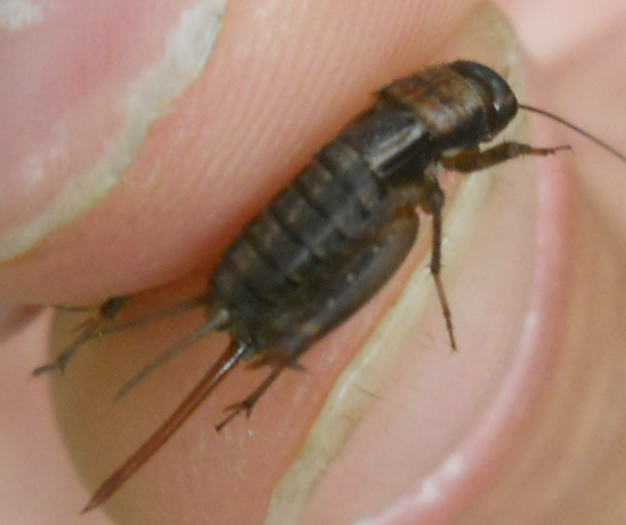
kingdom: Animalia
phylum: Arthropoda
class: Insecta
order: Orthoptera
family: Trigonidiidae
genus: Nemobius
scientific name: Nemobius sylvestris
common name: Wood-cricket
